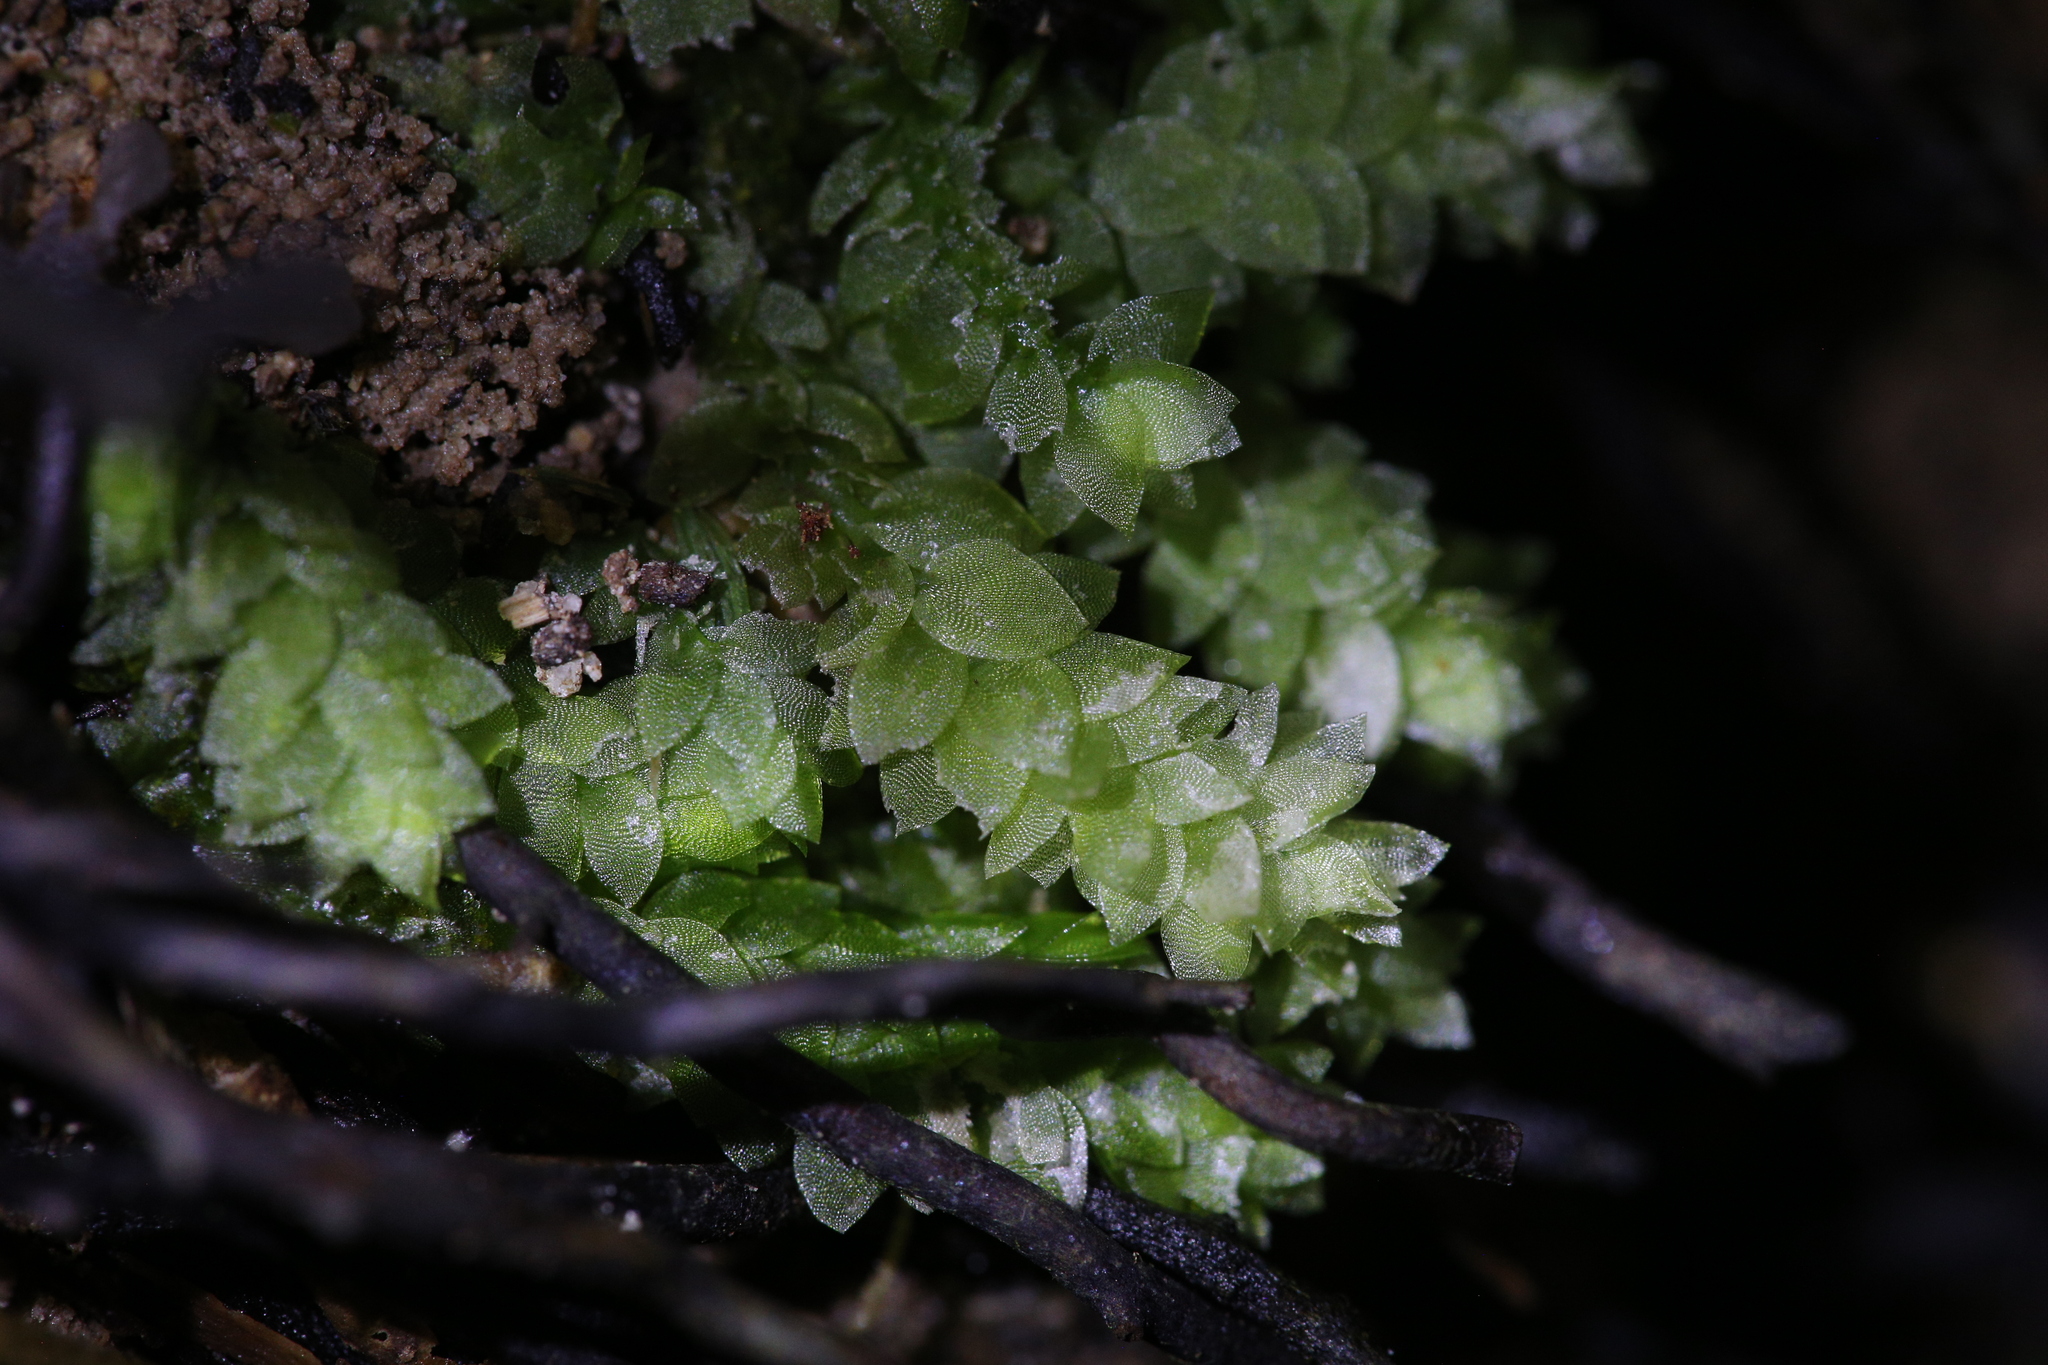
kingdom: Plantae
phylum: Bryophyta
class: Bryopsida
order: Hookeriales
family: Hookeriaceae
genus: Hookeria
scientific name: Hookeria acutifolia
